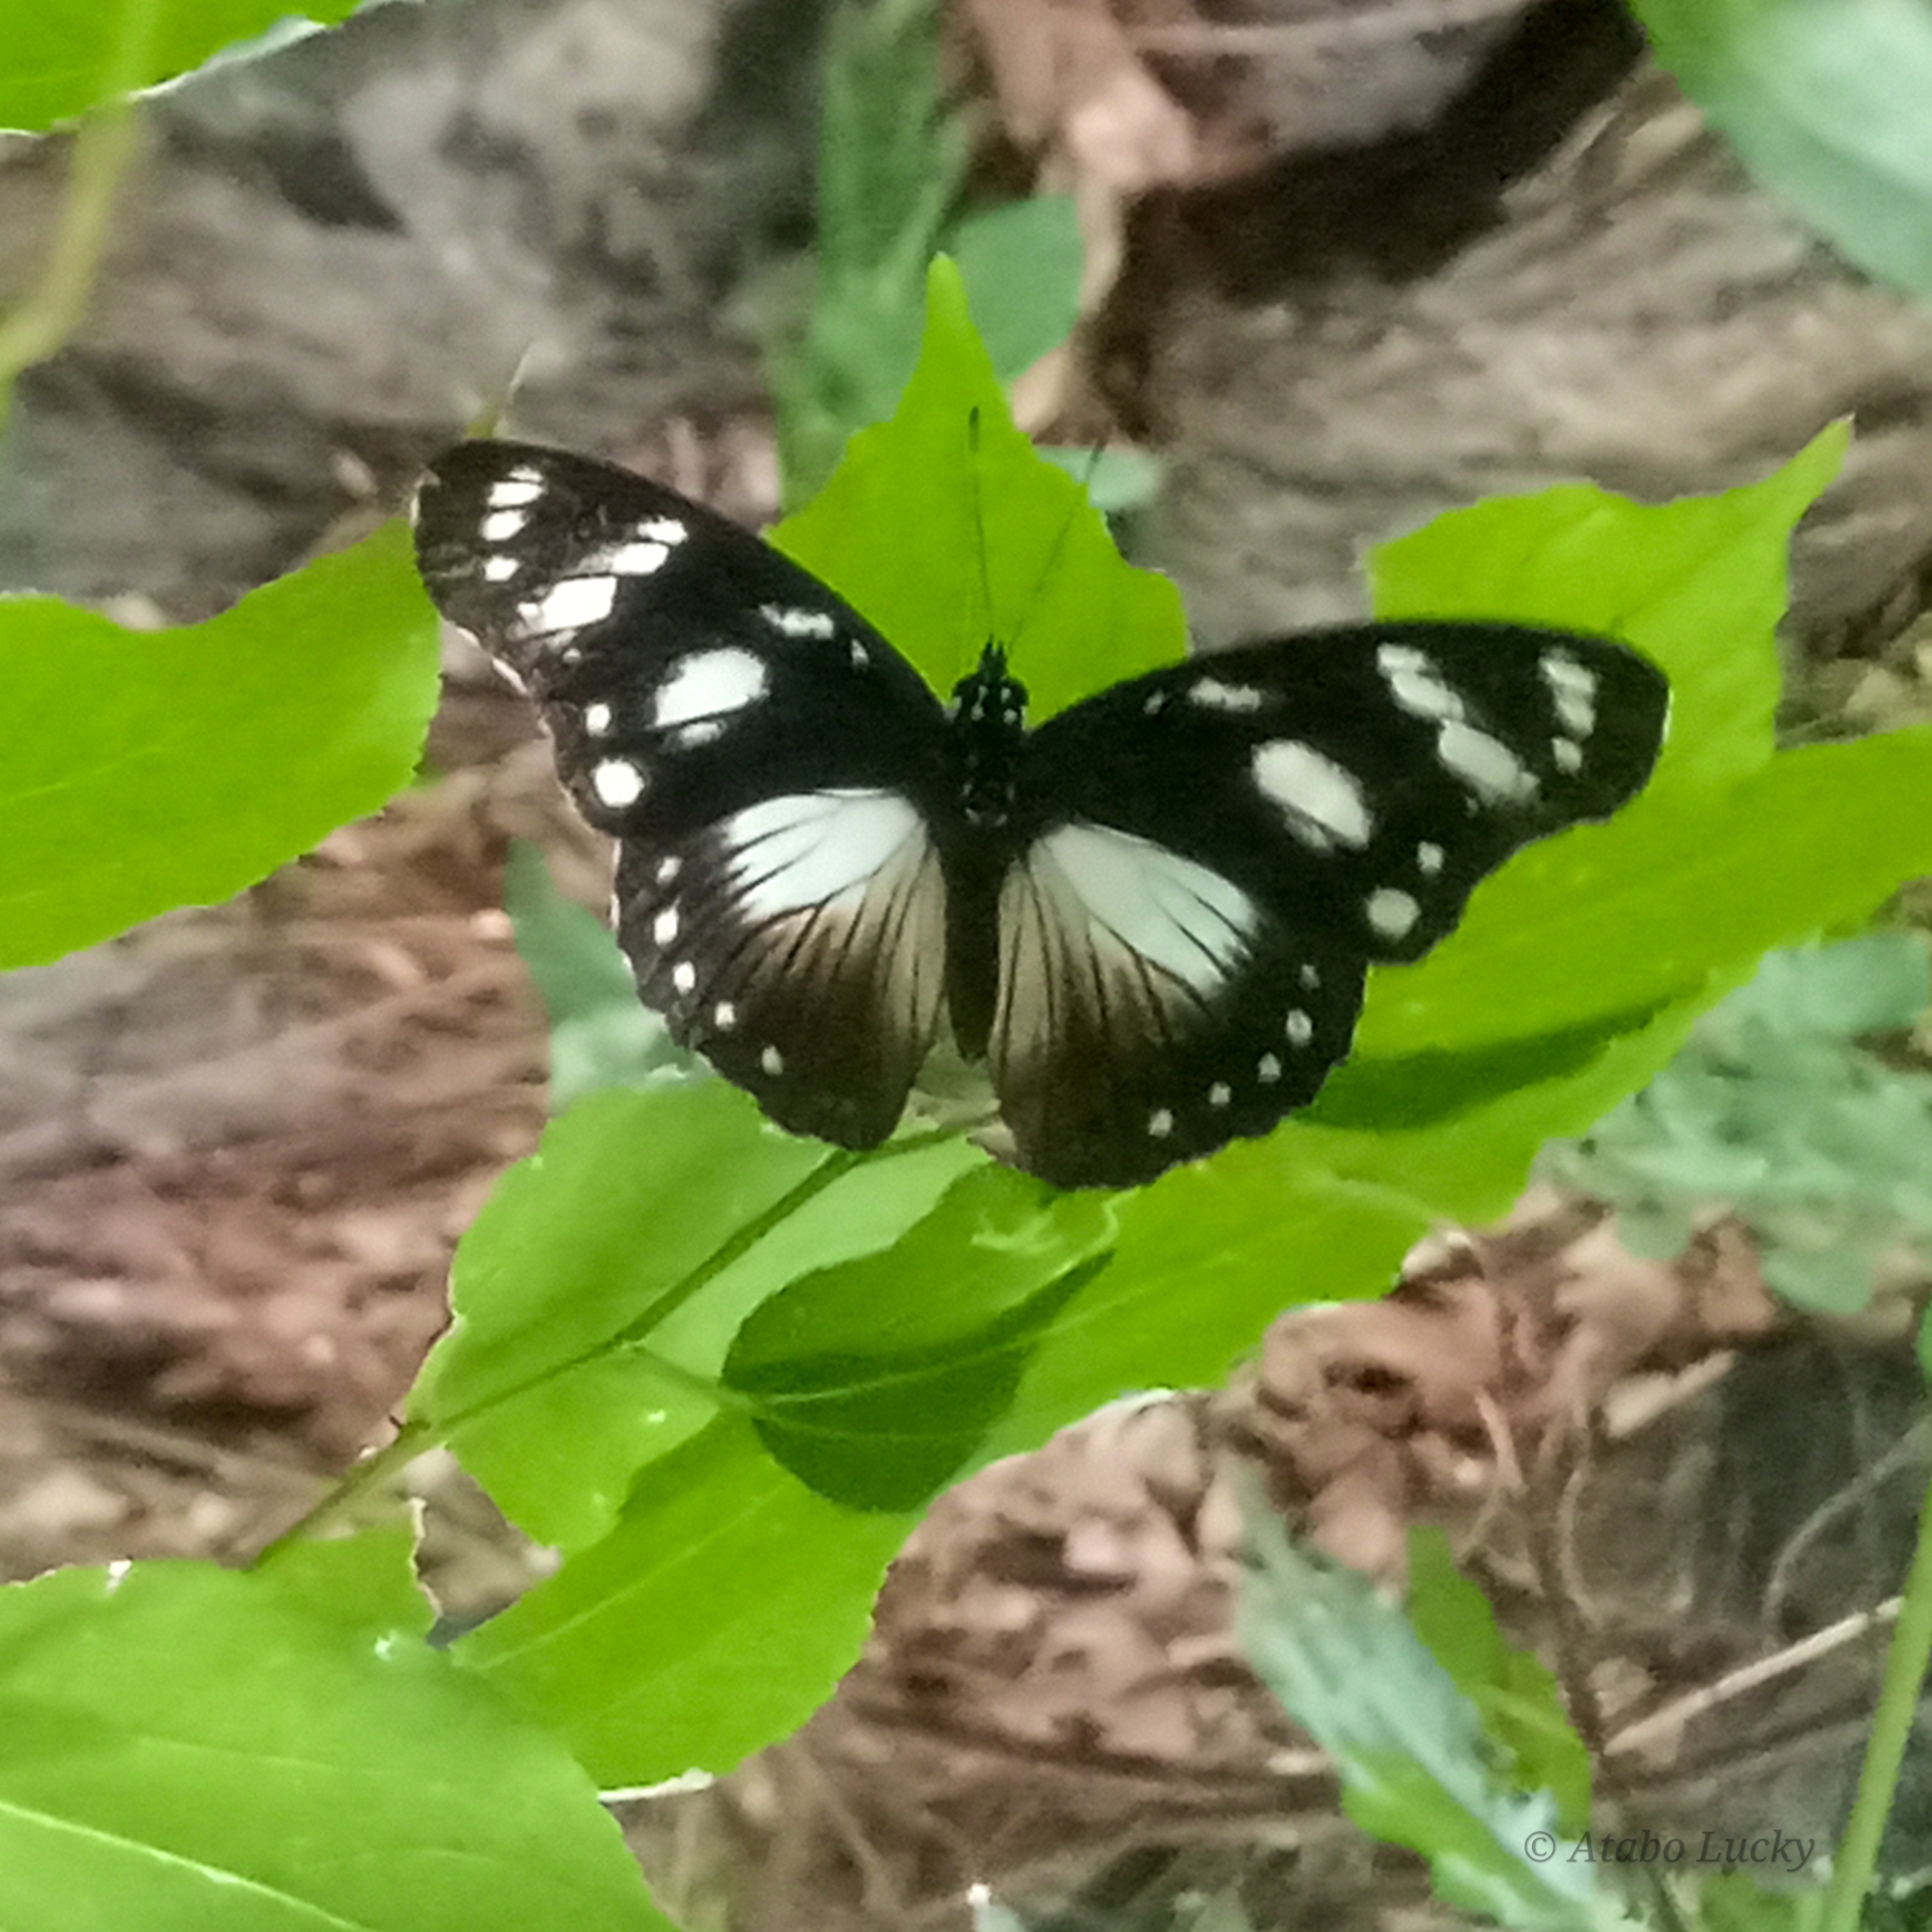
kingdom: Animalia
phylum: Arthropoda
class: Insecta
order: Lepidoptera
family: Nymphalidae
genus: Hypolimnas
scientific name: Hypolimnas dubius
